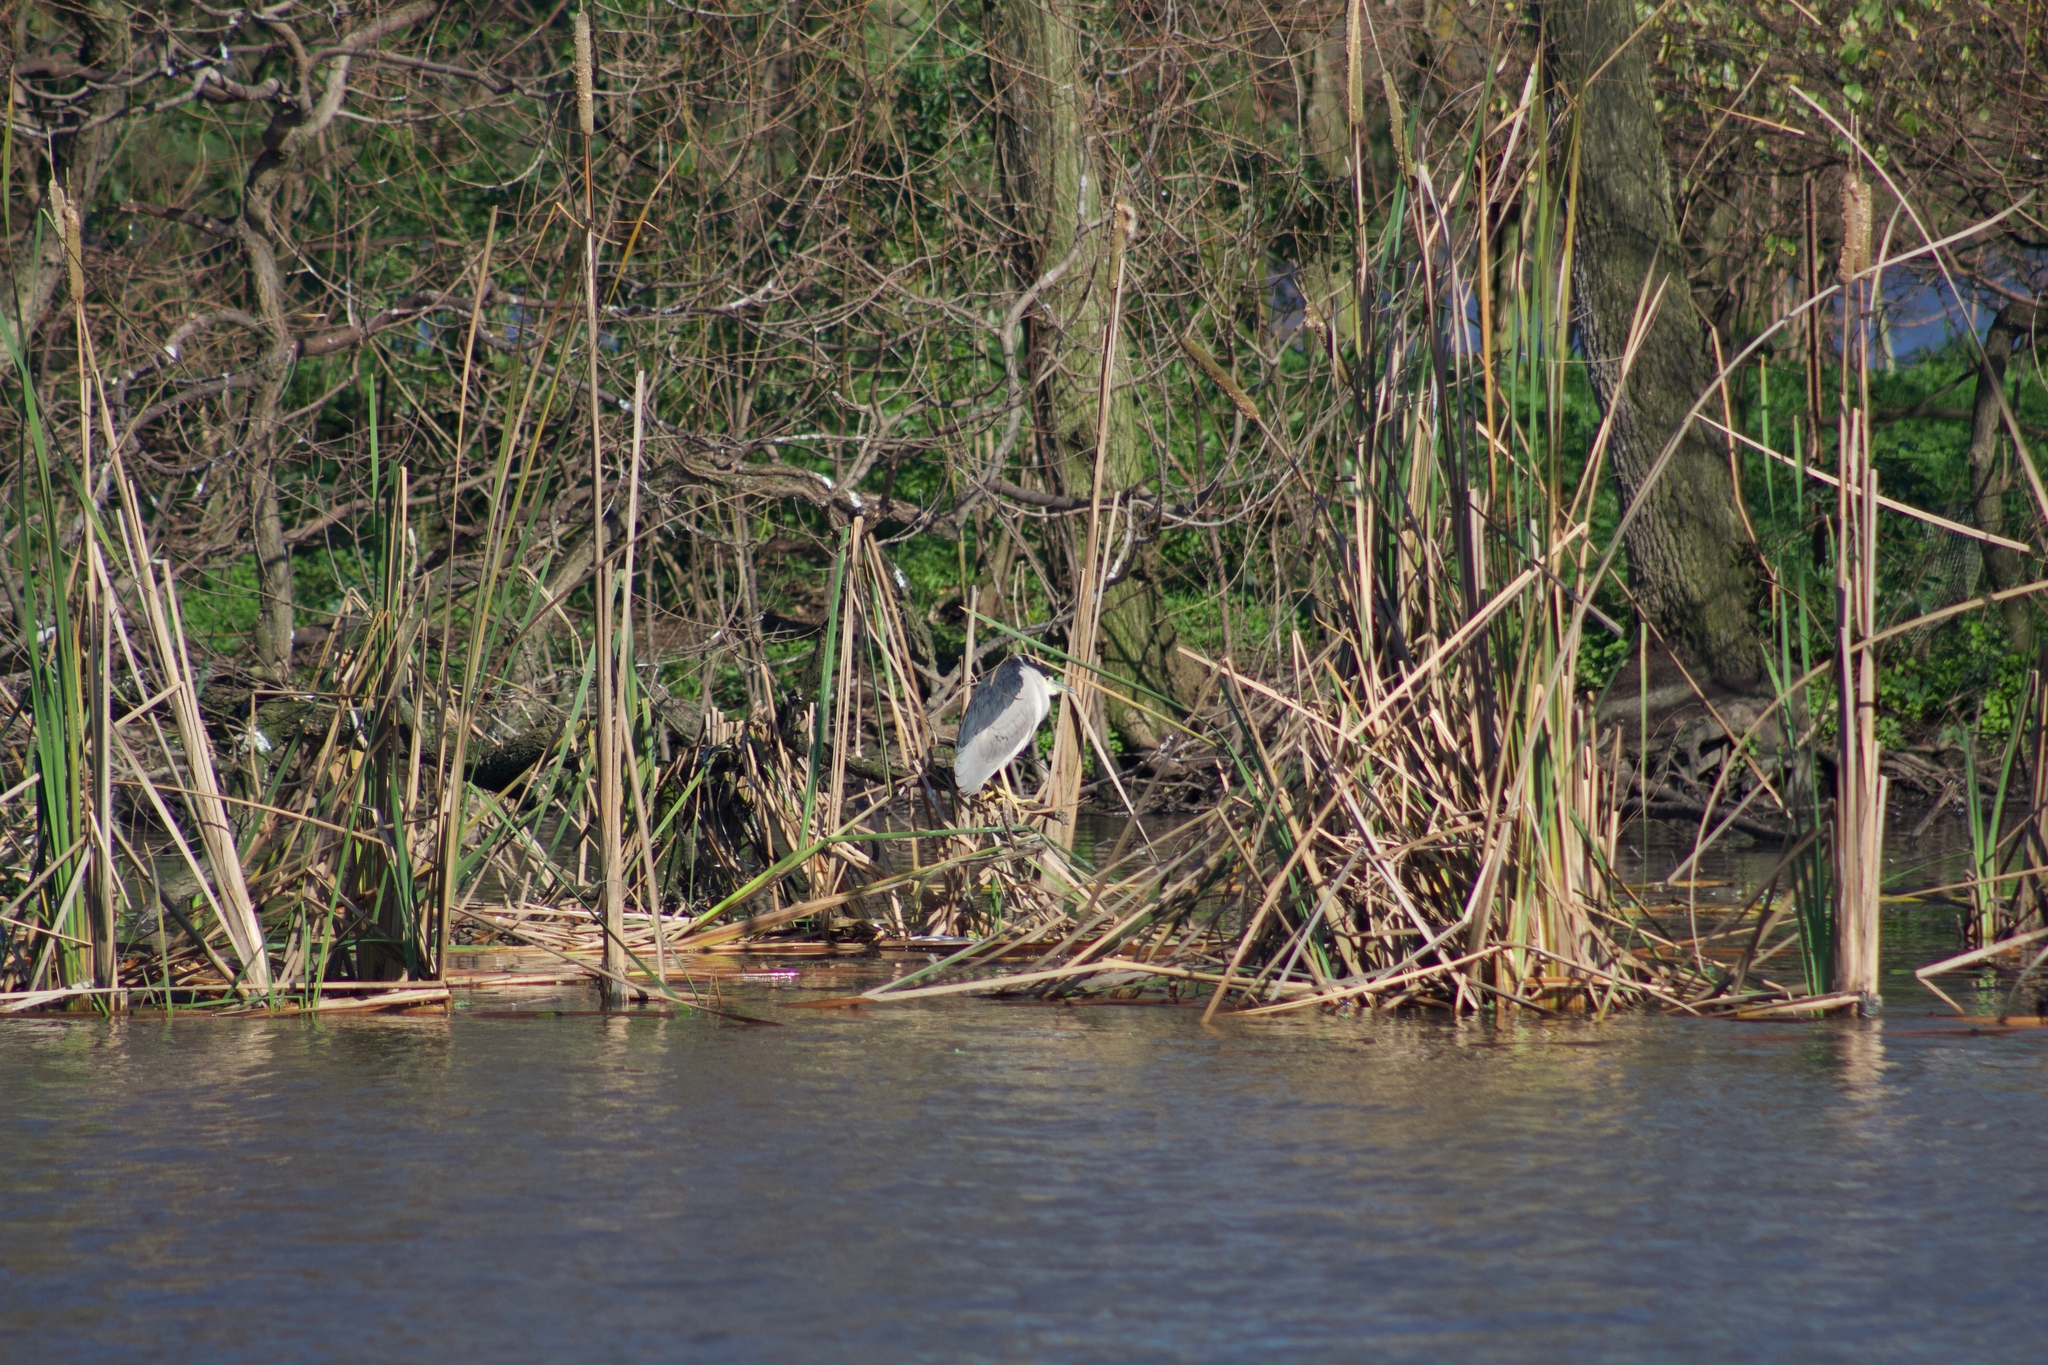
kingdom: Animalia
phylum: Chordata
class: Aves
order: Pelecaniformes
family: Ardeidae
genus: Nycticorax
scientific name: Nycticorax nycticorax
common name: Black-crowned night heron
